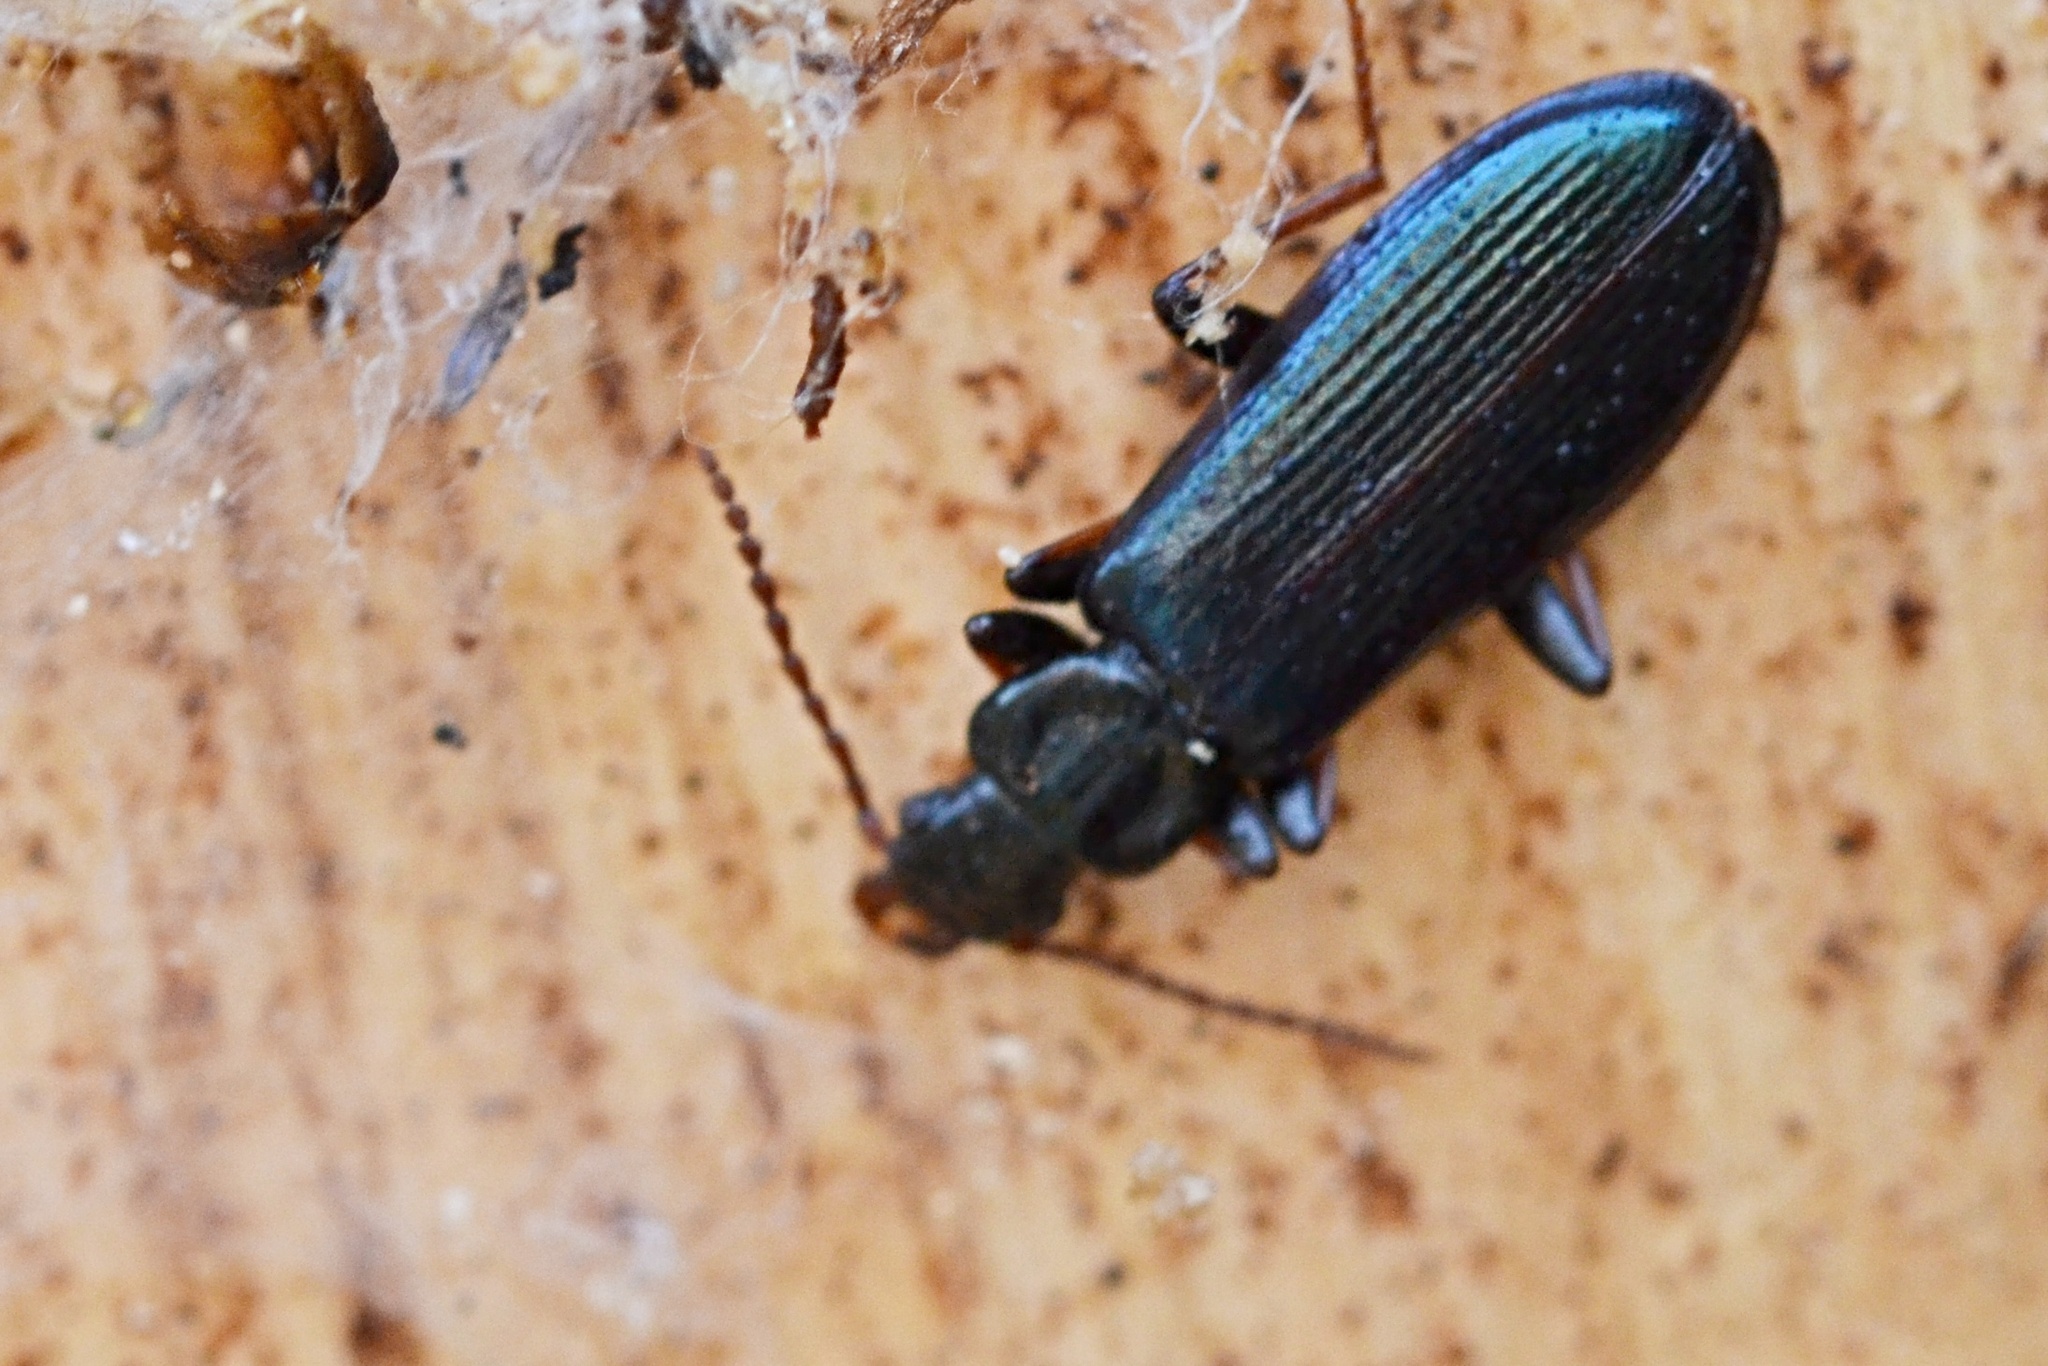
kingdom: Animalia
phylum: Arthropoda
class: Insecta
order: Coleoptera
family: Pythidae
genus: Pytho
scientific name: Pytho depressus
